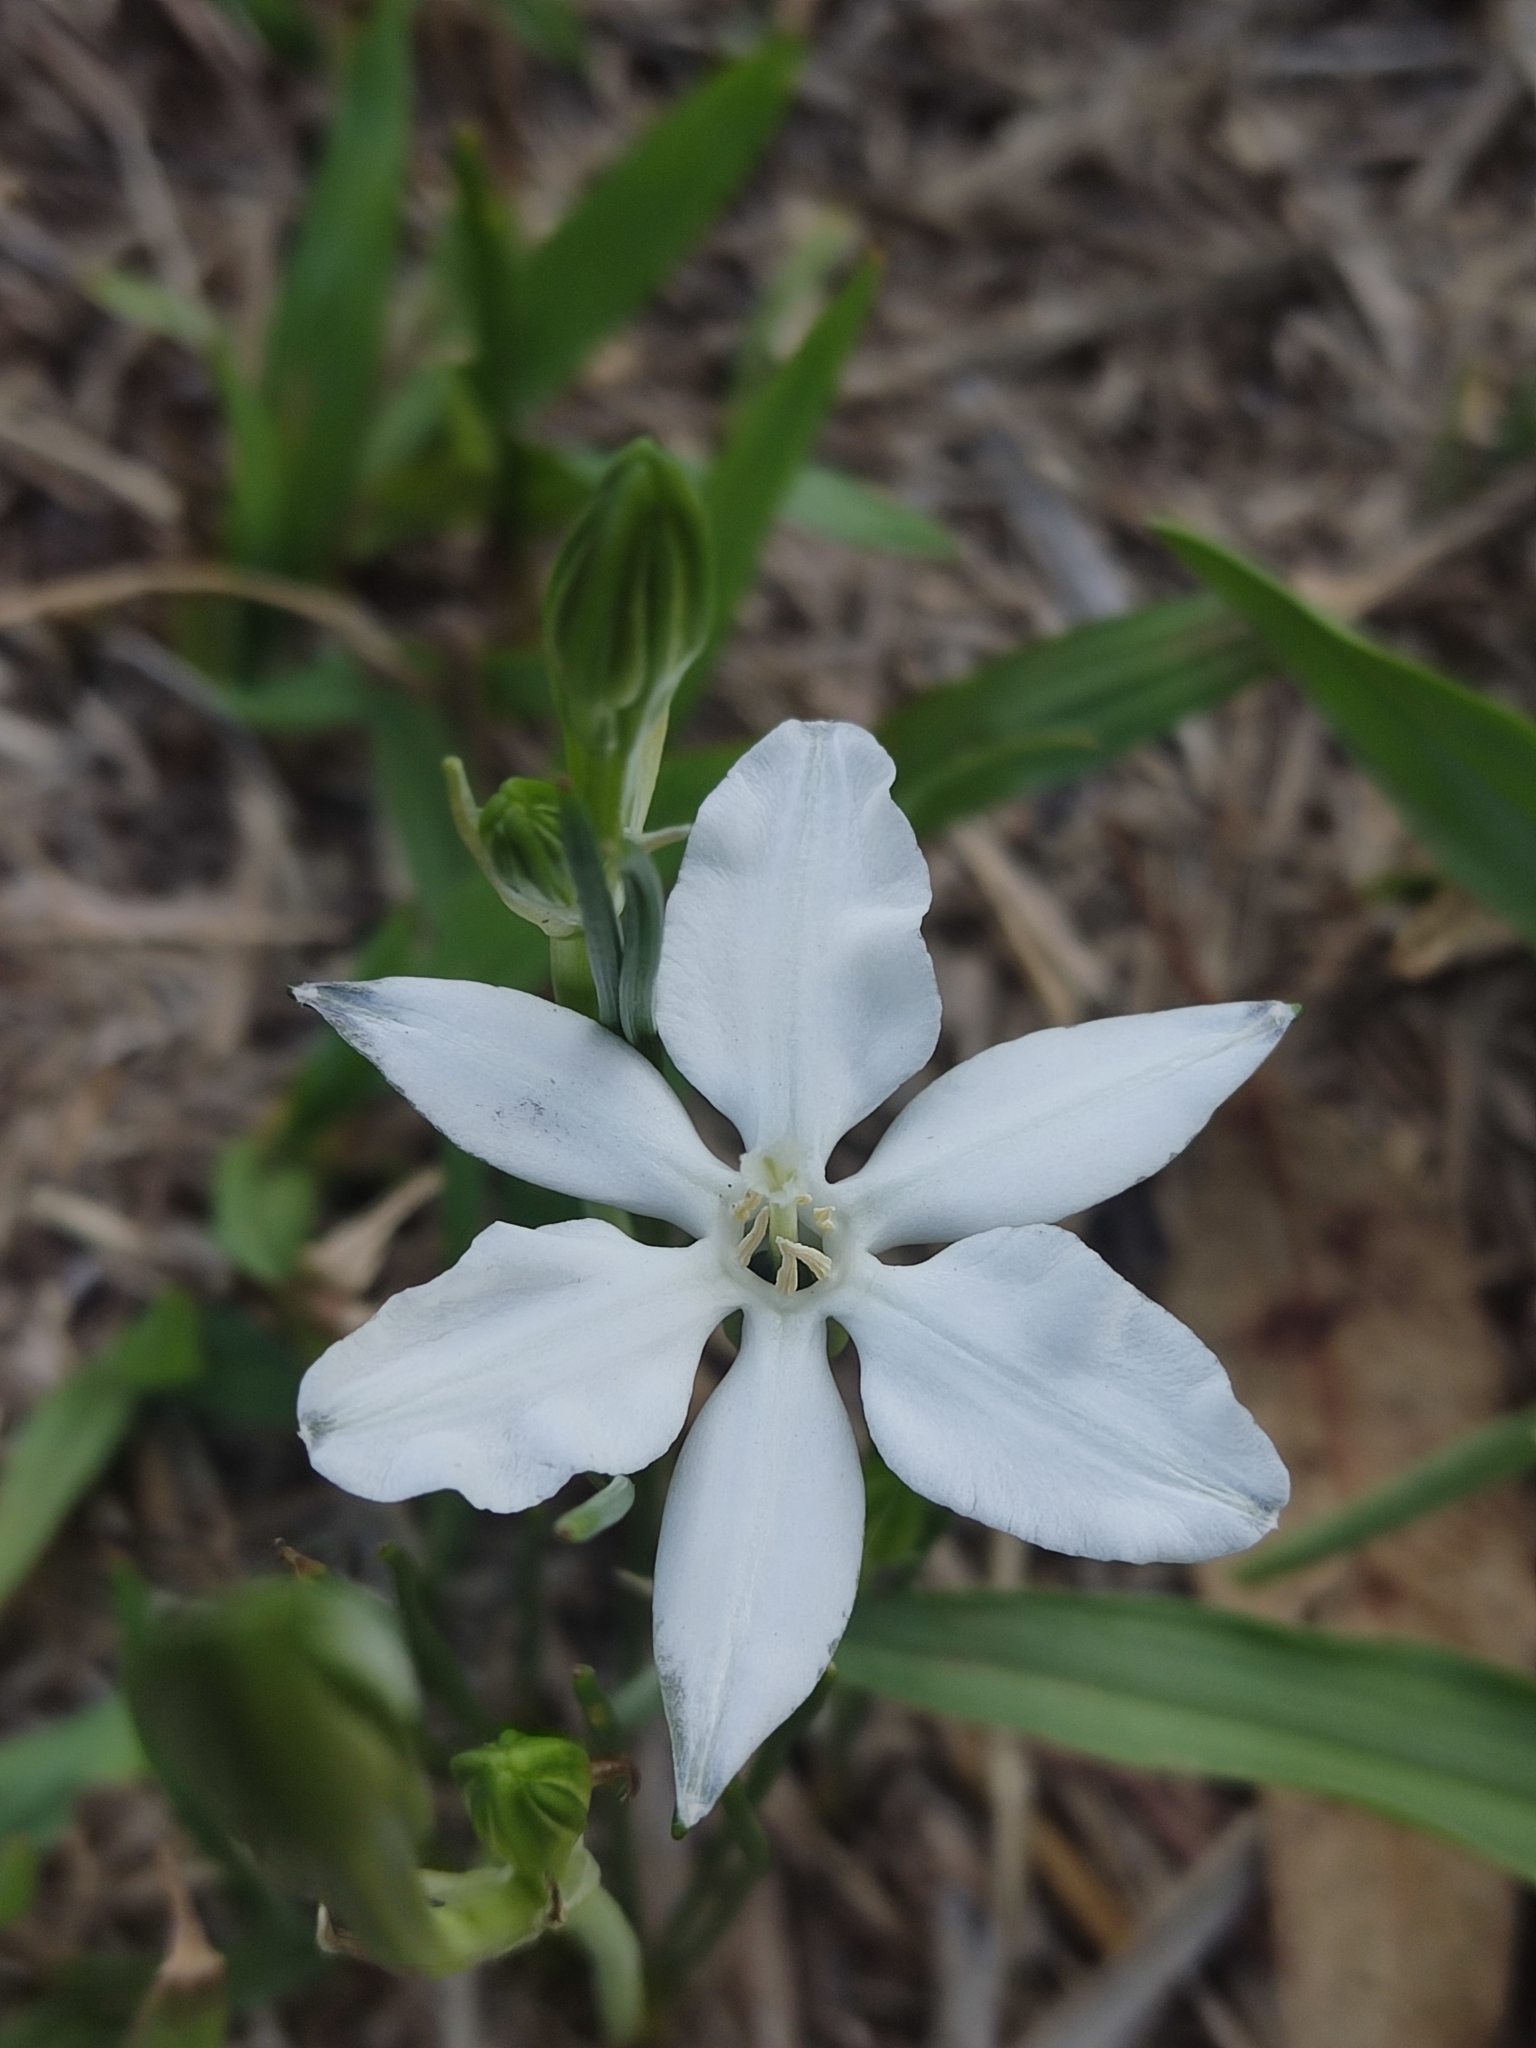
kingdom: Plantae
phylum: Tracheophyta
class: Liliopsida
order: Asparagales
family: Asparagaceae
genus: Milla
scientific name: Milla biflora
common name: Mexican-star
